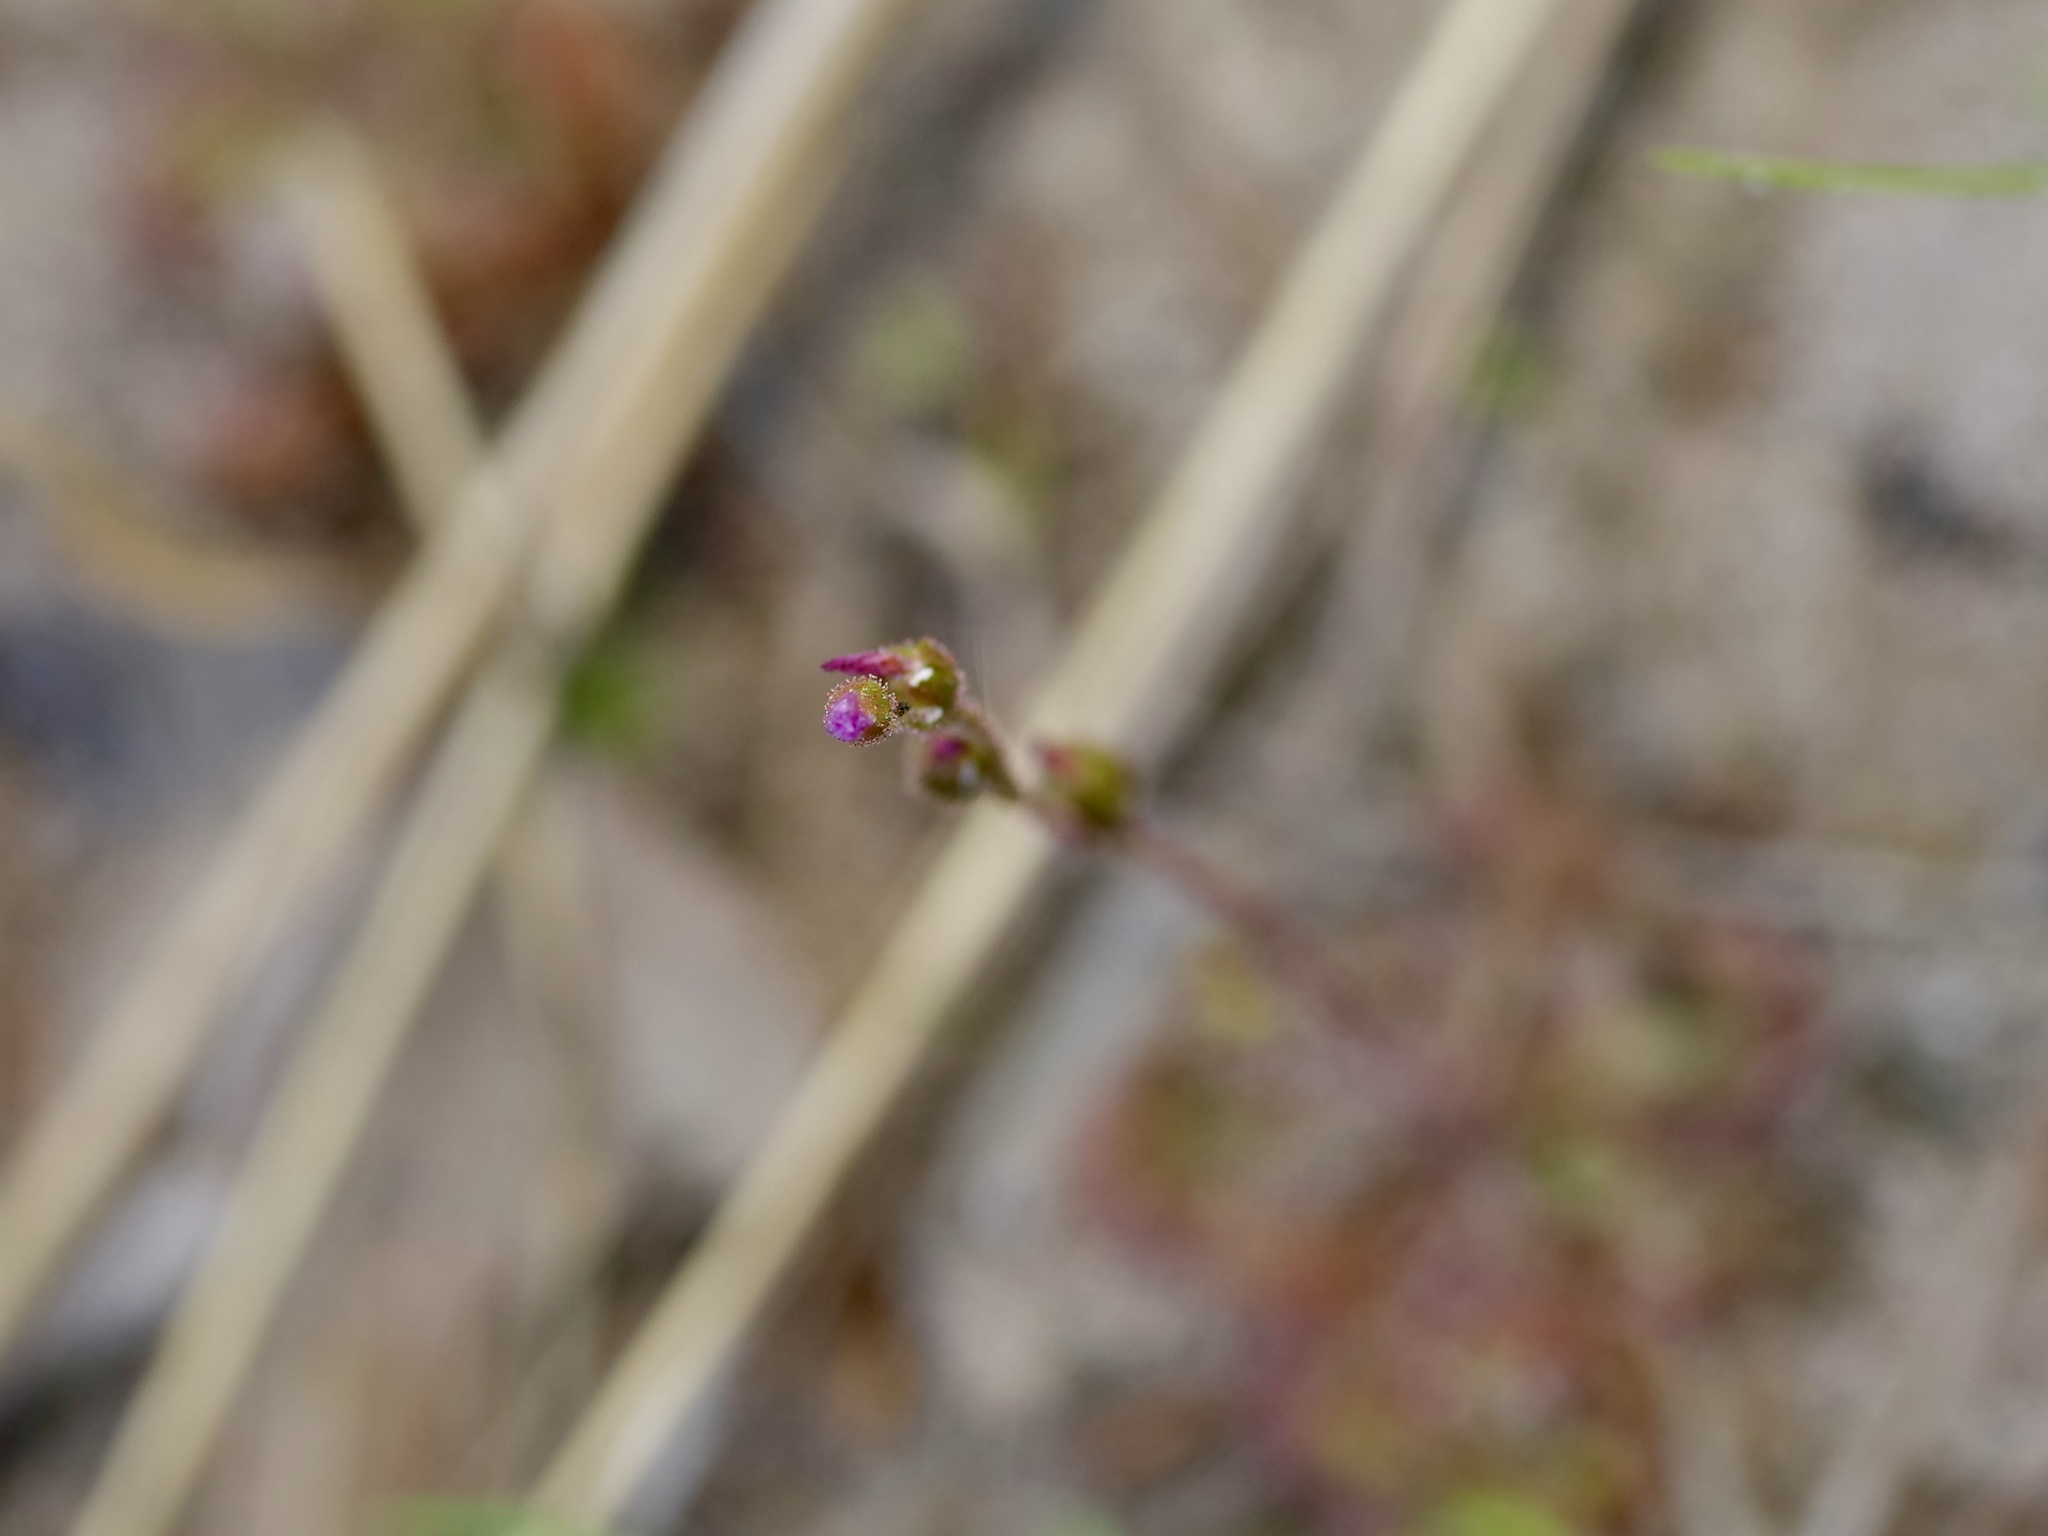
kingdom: Plantae
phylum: Tracheophyta
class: Magnoliopsida
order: Caryophyllales
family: Droseraceae
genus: Drosera
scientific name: Drosera brevifolia
